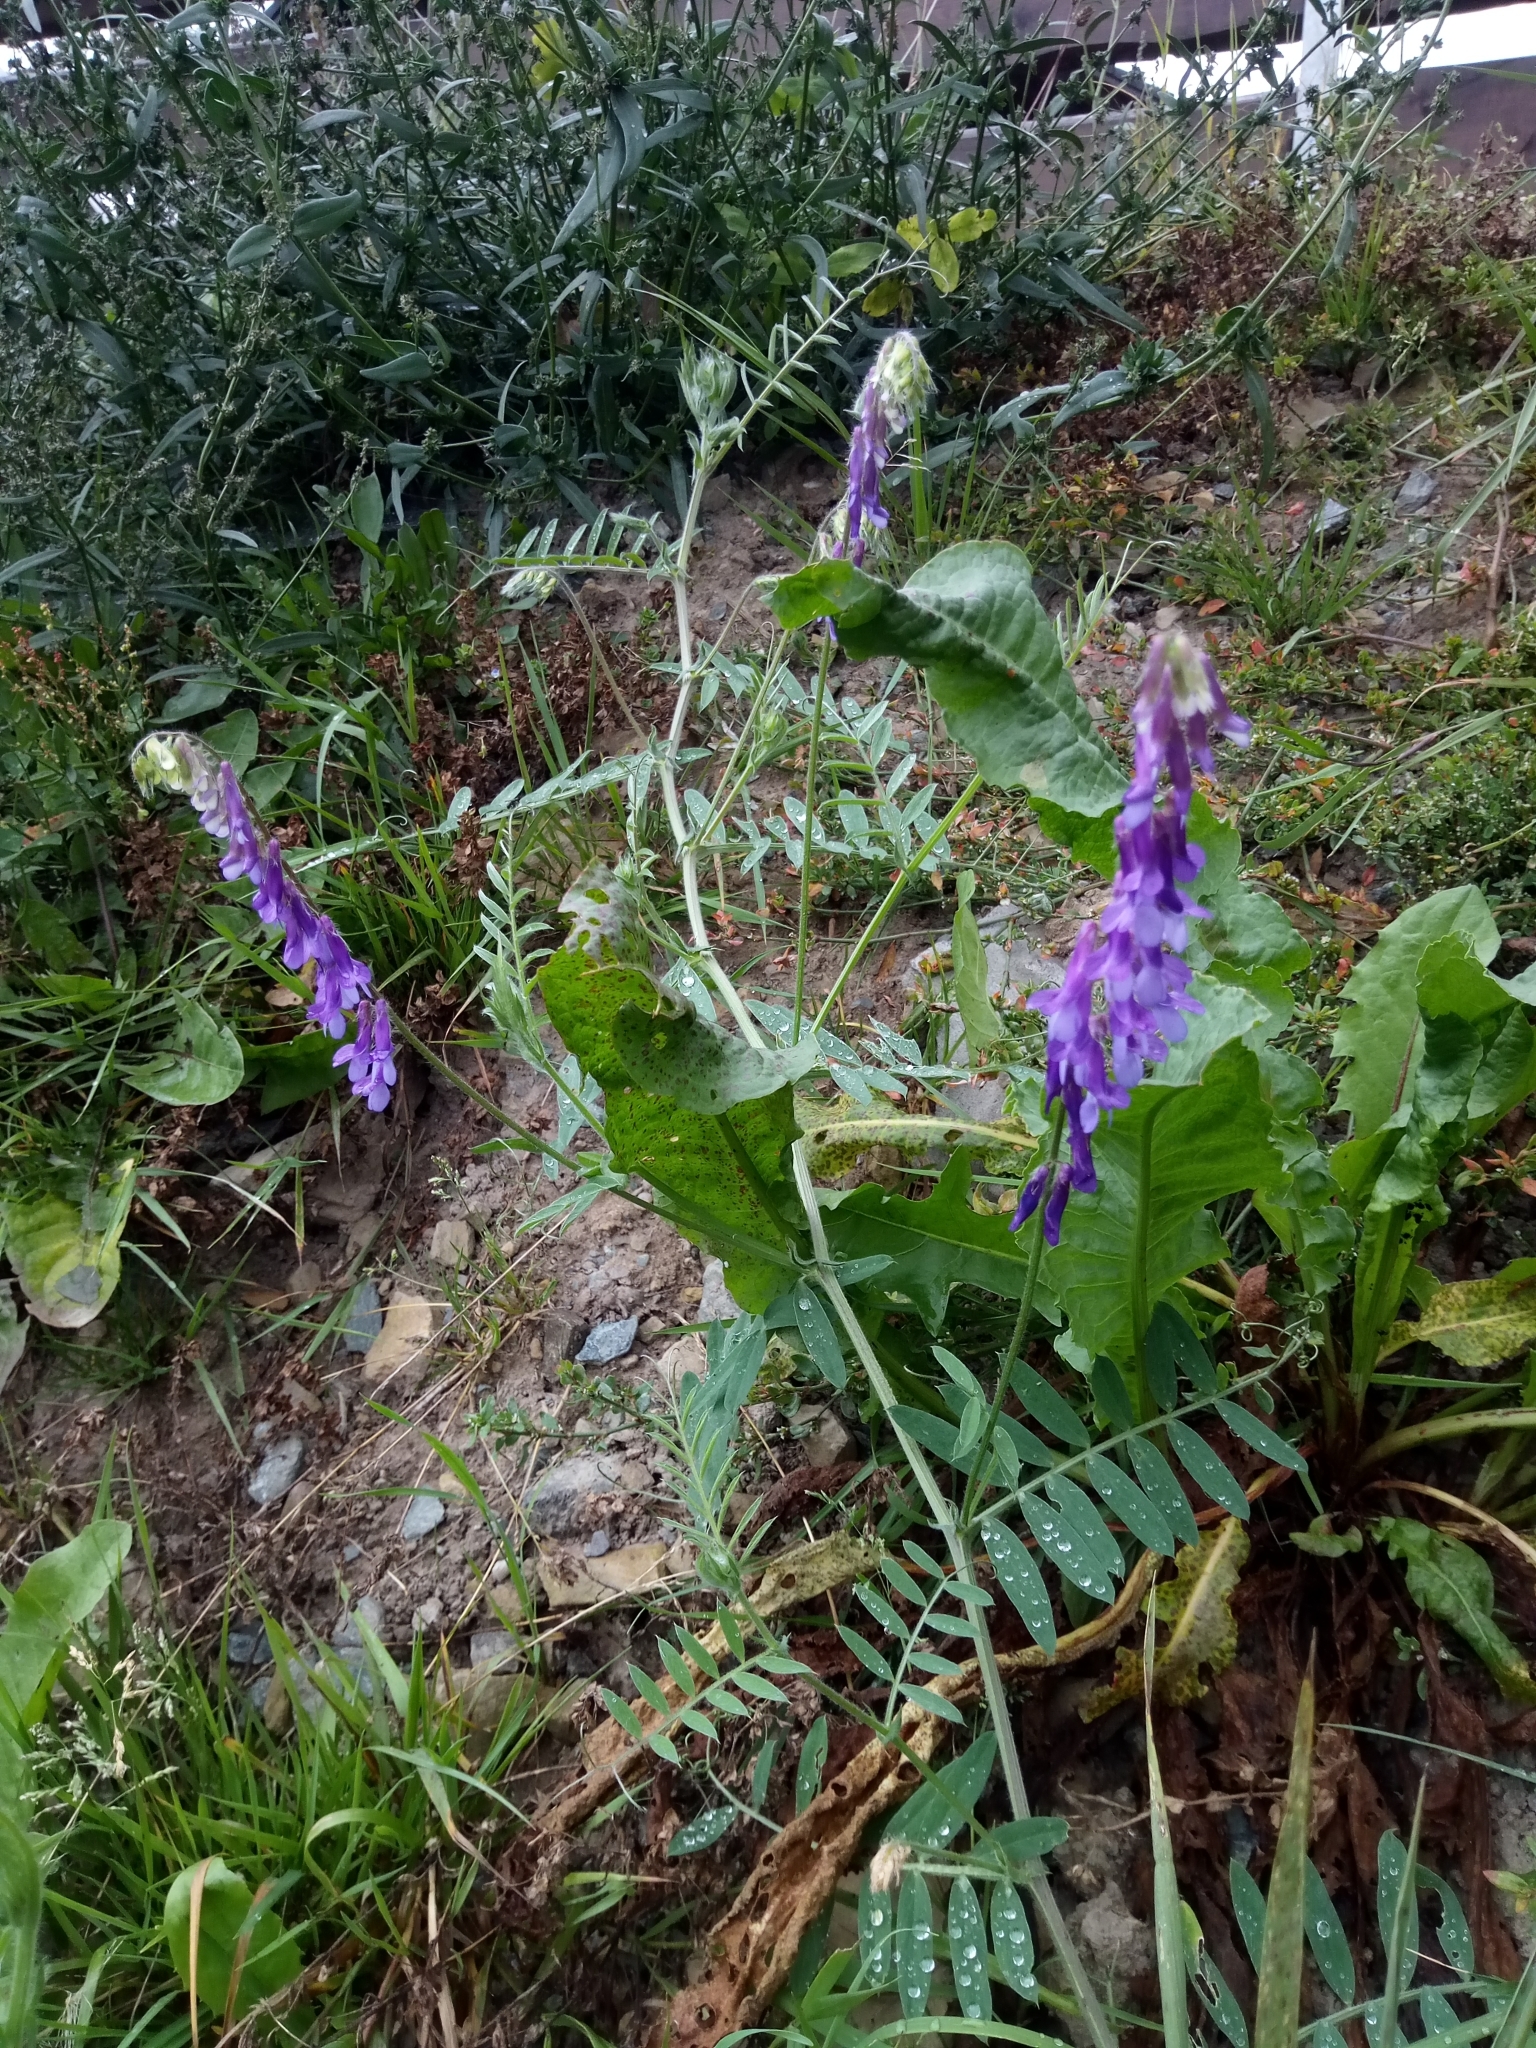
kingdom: Plantae
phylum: Tracheophyta
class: Magnoliopsida
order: Fabales
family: Fabaceae
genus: Vicia
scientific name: Vicia villosa
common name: Fodder vetch
